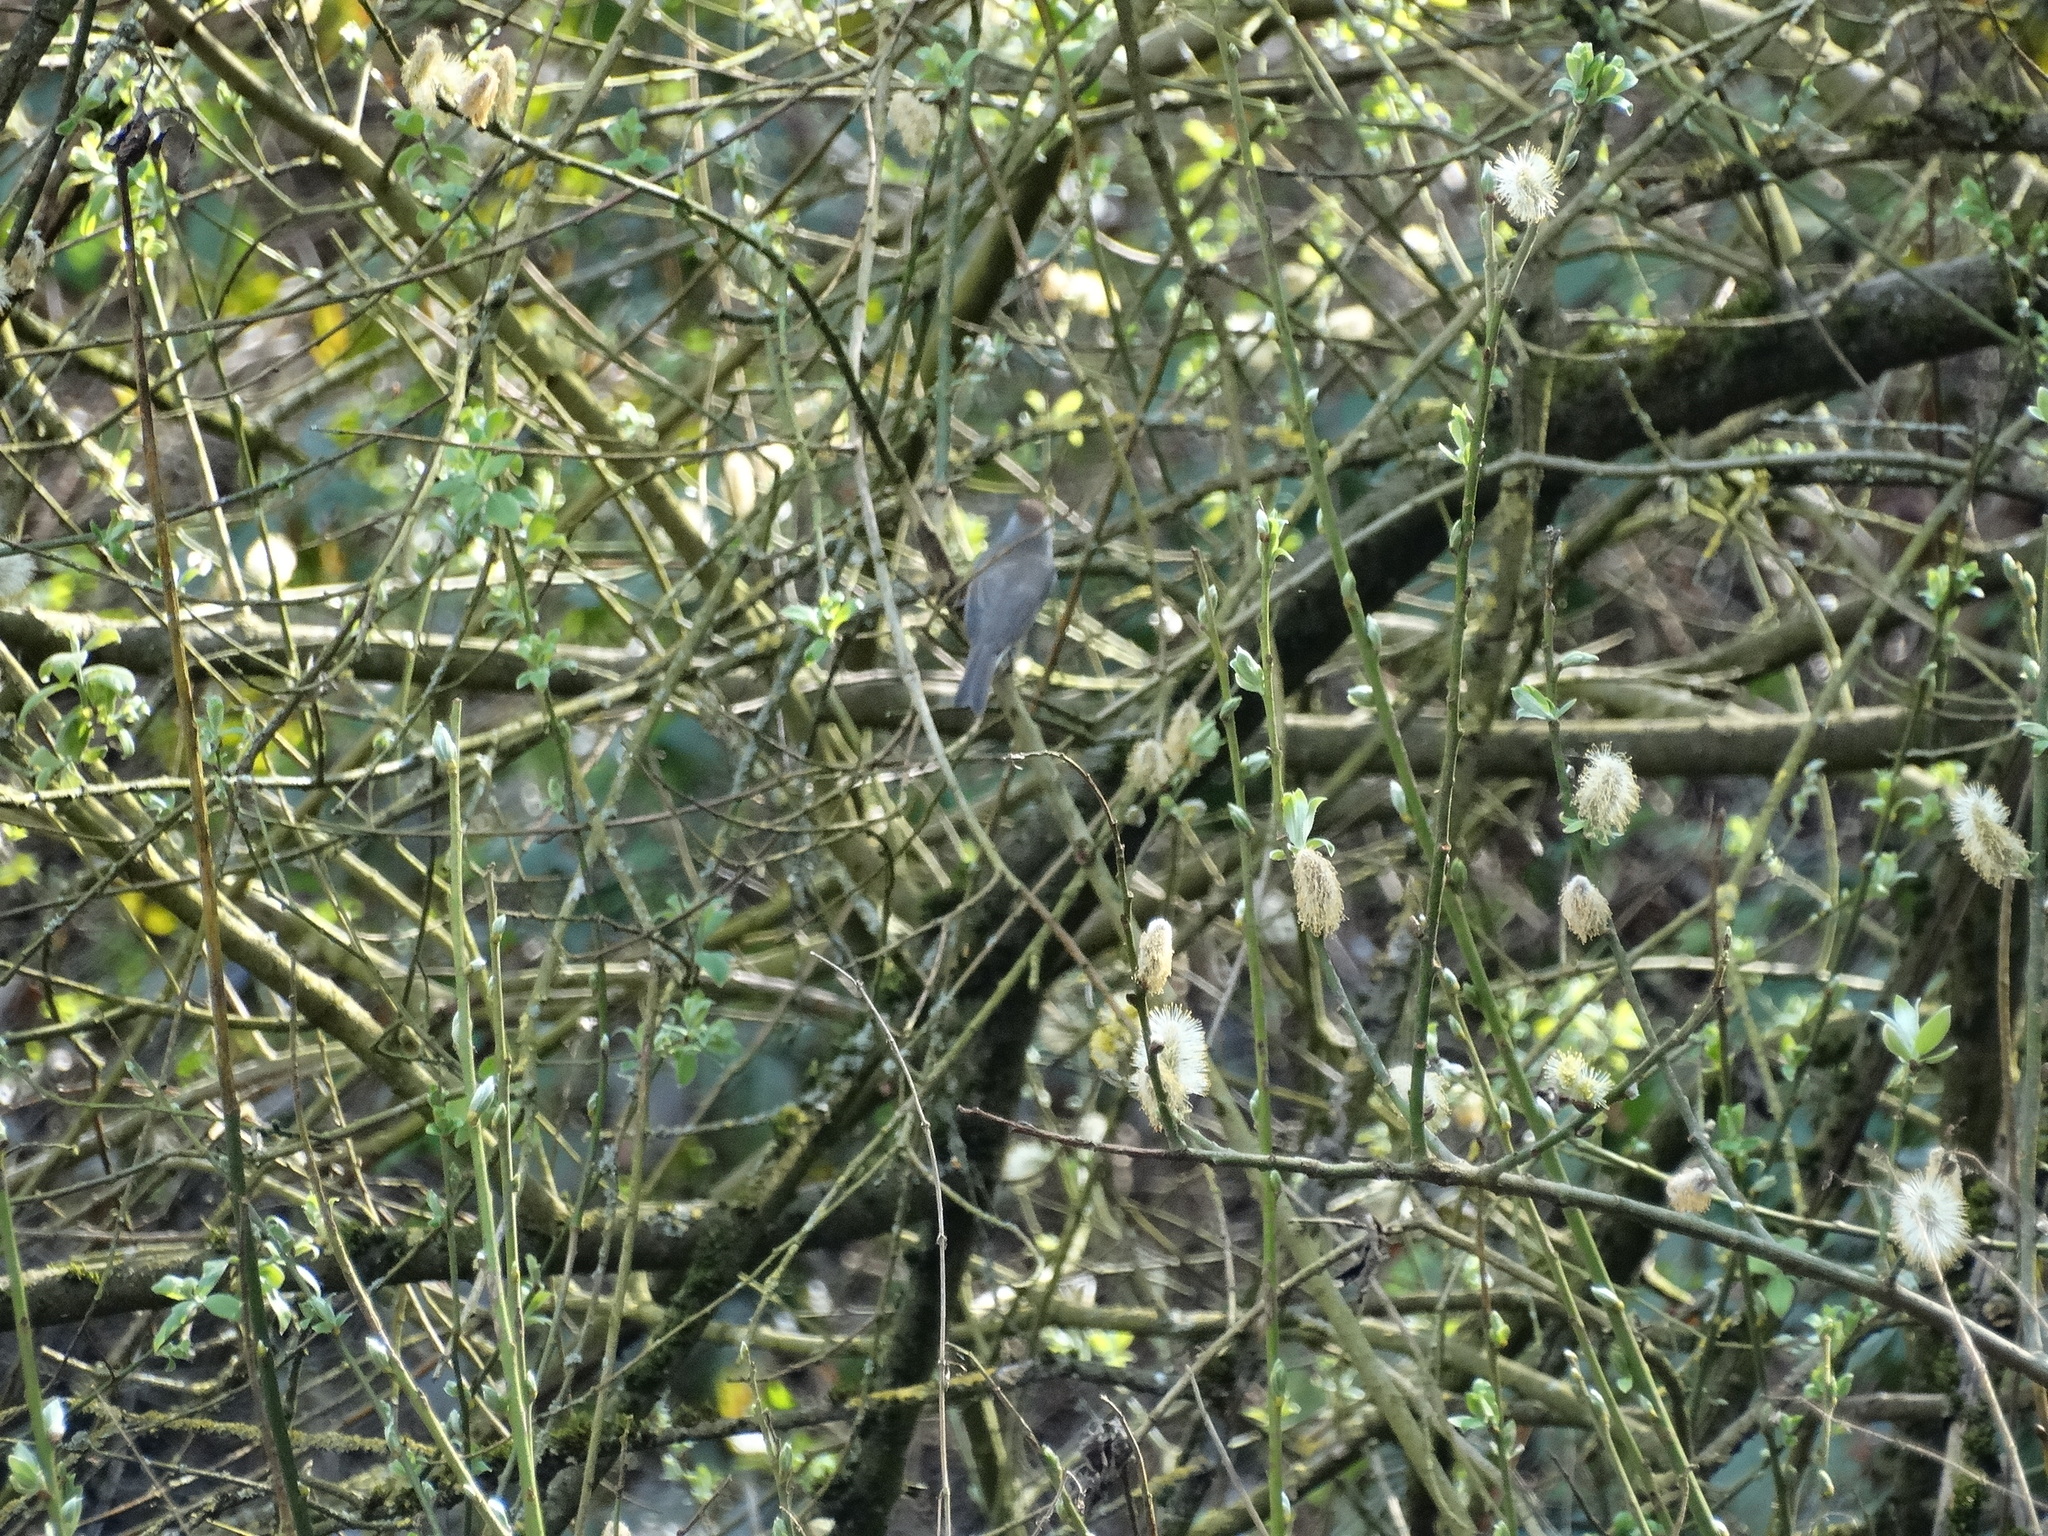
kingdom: Animalia
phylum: Chordata
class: Aves
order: Passeriformes
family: Sylviidae
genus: Sylvia
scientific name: Sylvia atricapilla
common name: Eurasian blackcap
